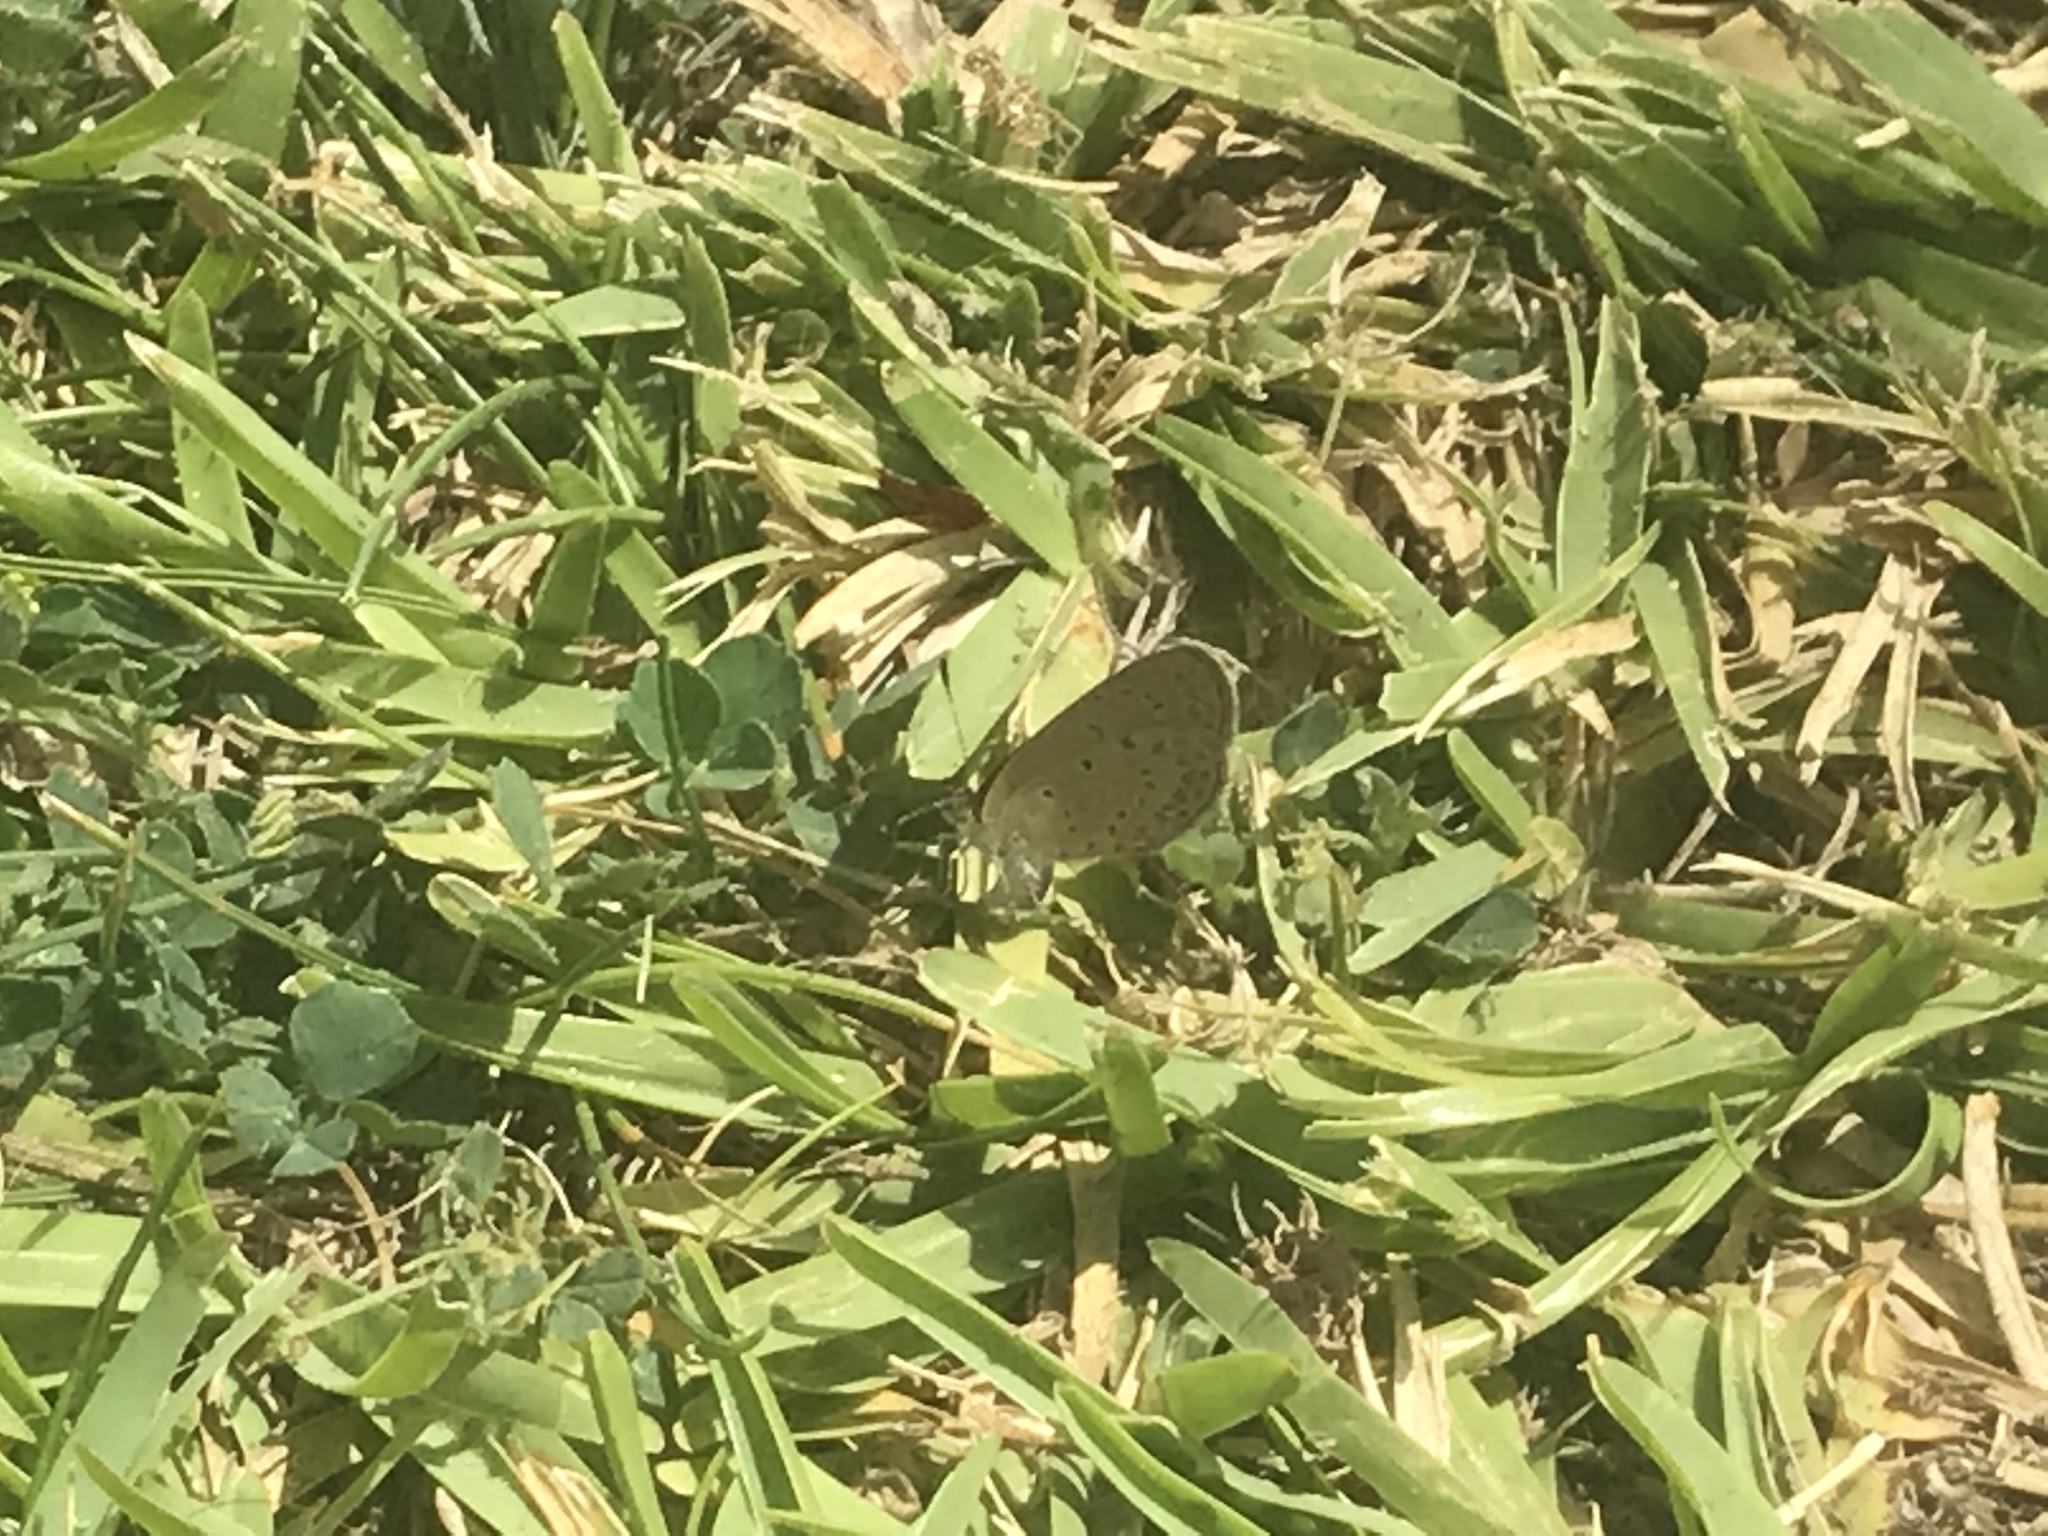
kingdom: Animalia
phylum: Arthropoda
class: Insecta
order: Lepidoptera
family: Lycaenidae
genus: Zizeeria
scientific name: Zizeeria knysna
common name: African grass blue
